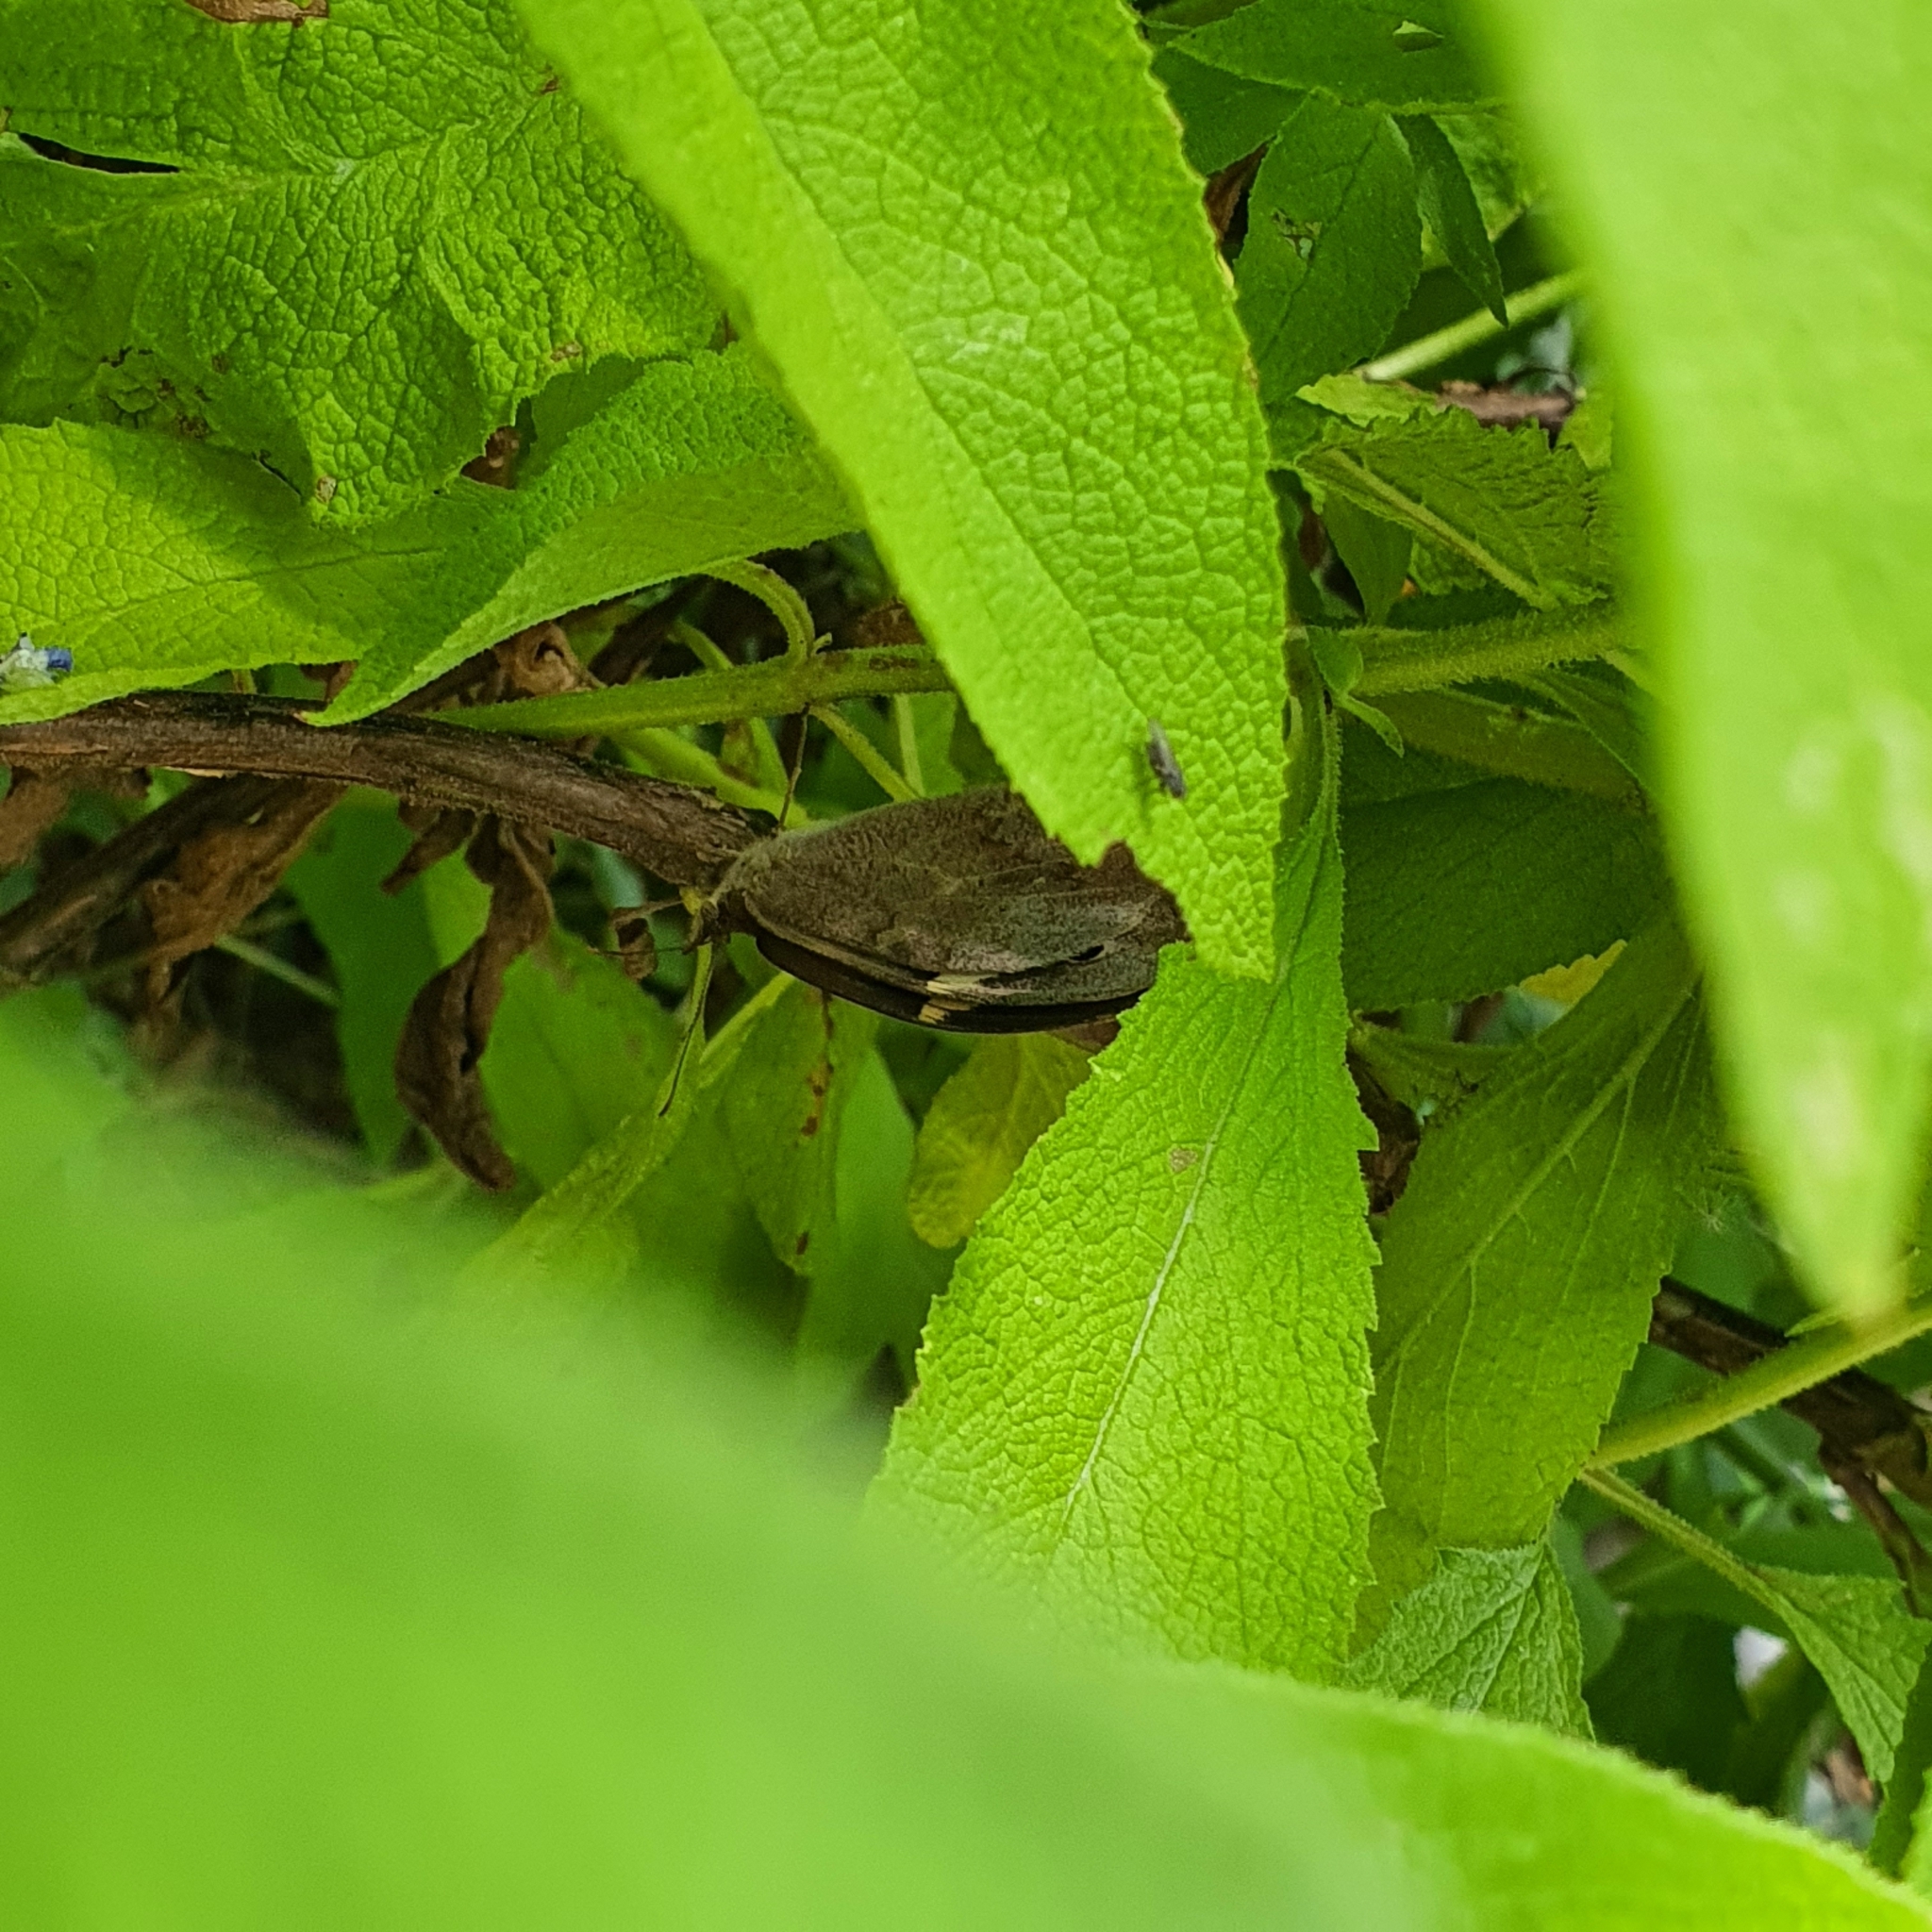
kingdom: Animalia
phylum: Arthropoda
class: Insecta
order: Lepidoptera
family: Nymphalidae
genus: Heteronympha
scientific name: Heteronympha merope
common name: Common brown
